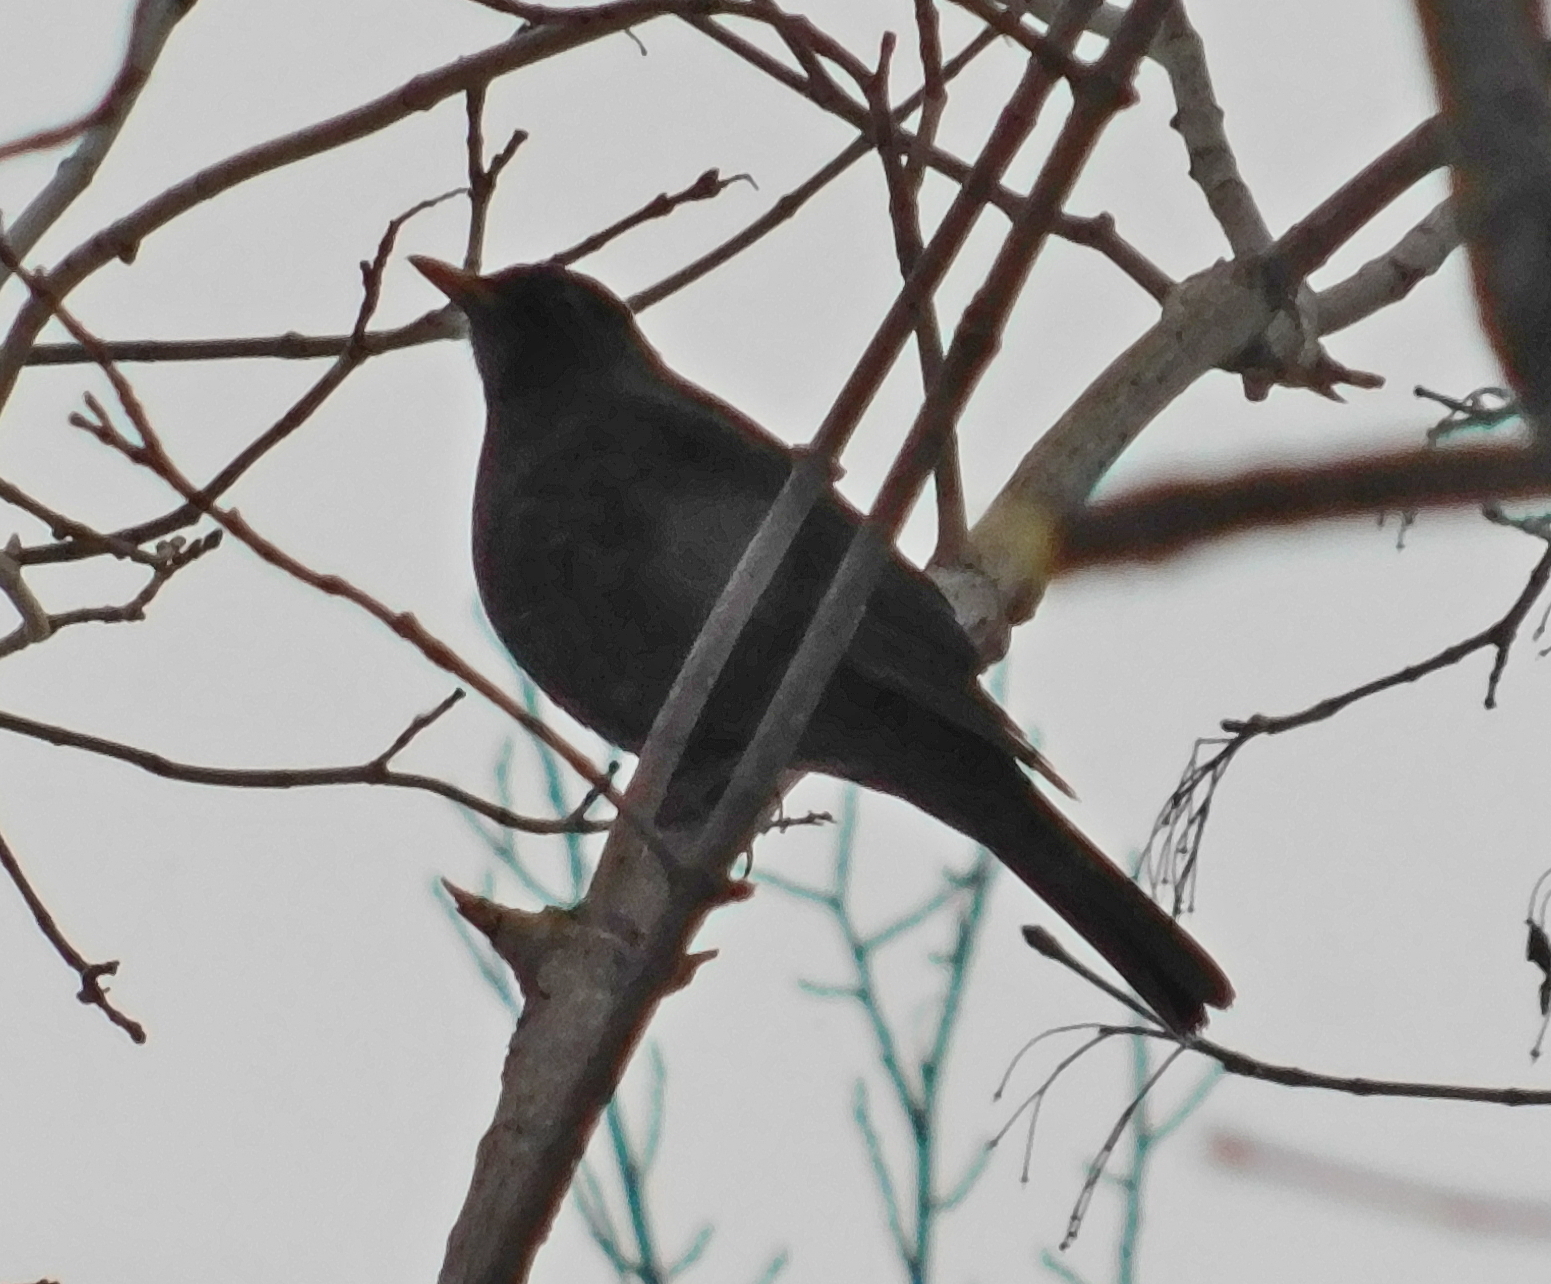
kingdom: Animalia
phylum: Chordata
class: Aves
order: Passeriformes
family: Turdidae
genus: Turdus
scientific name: Turdus merula
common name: Common blackbird
